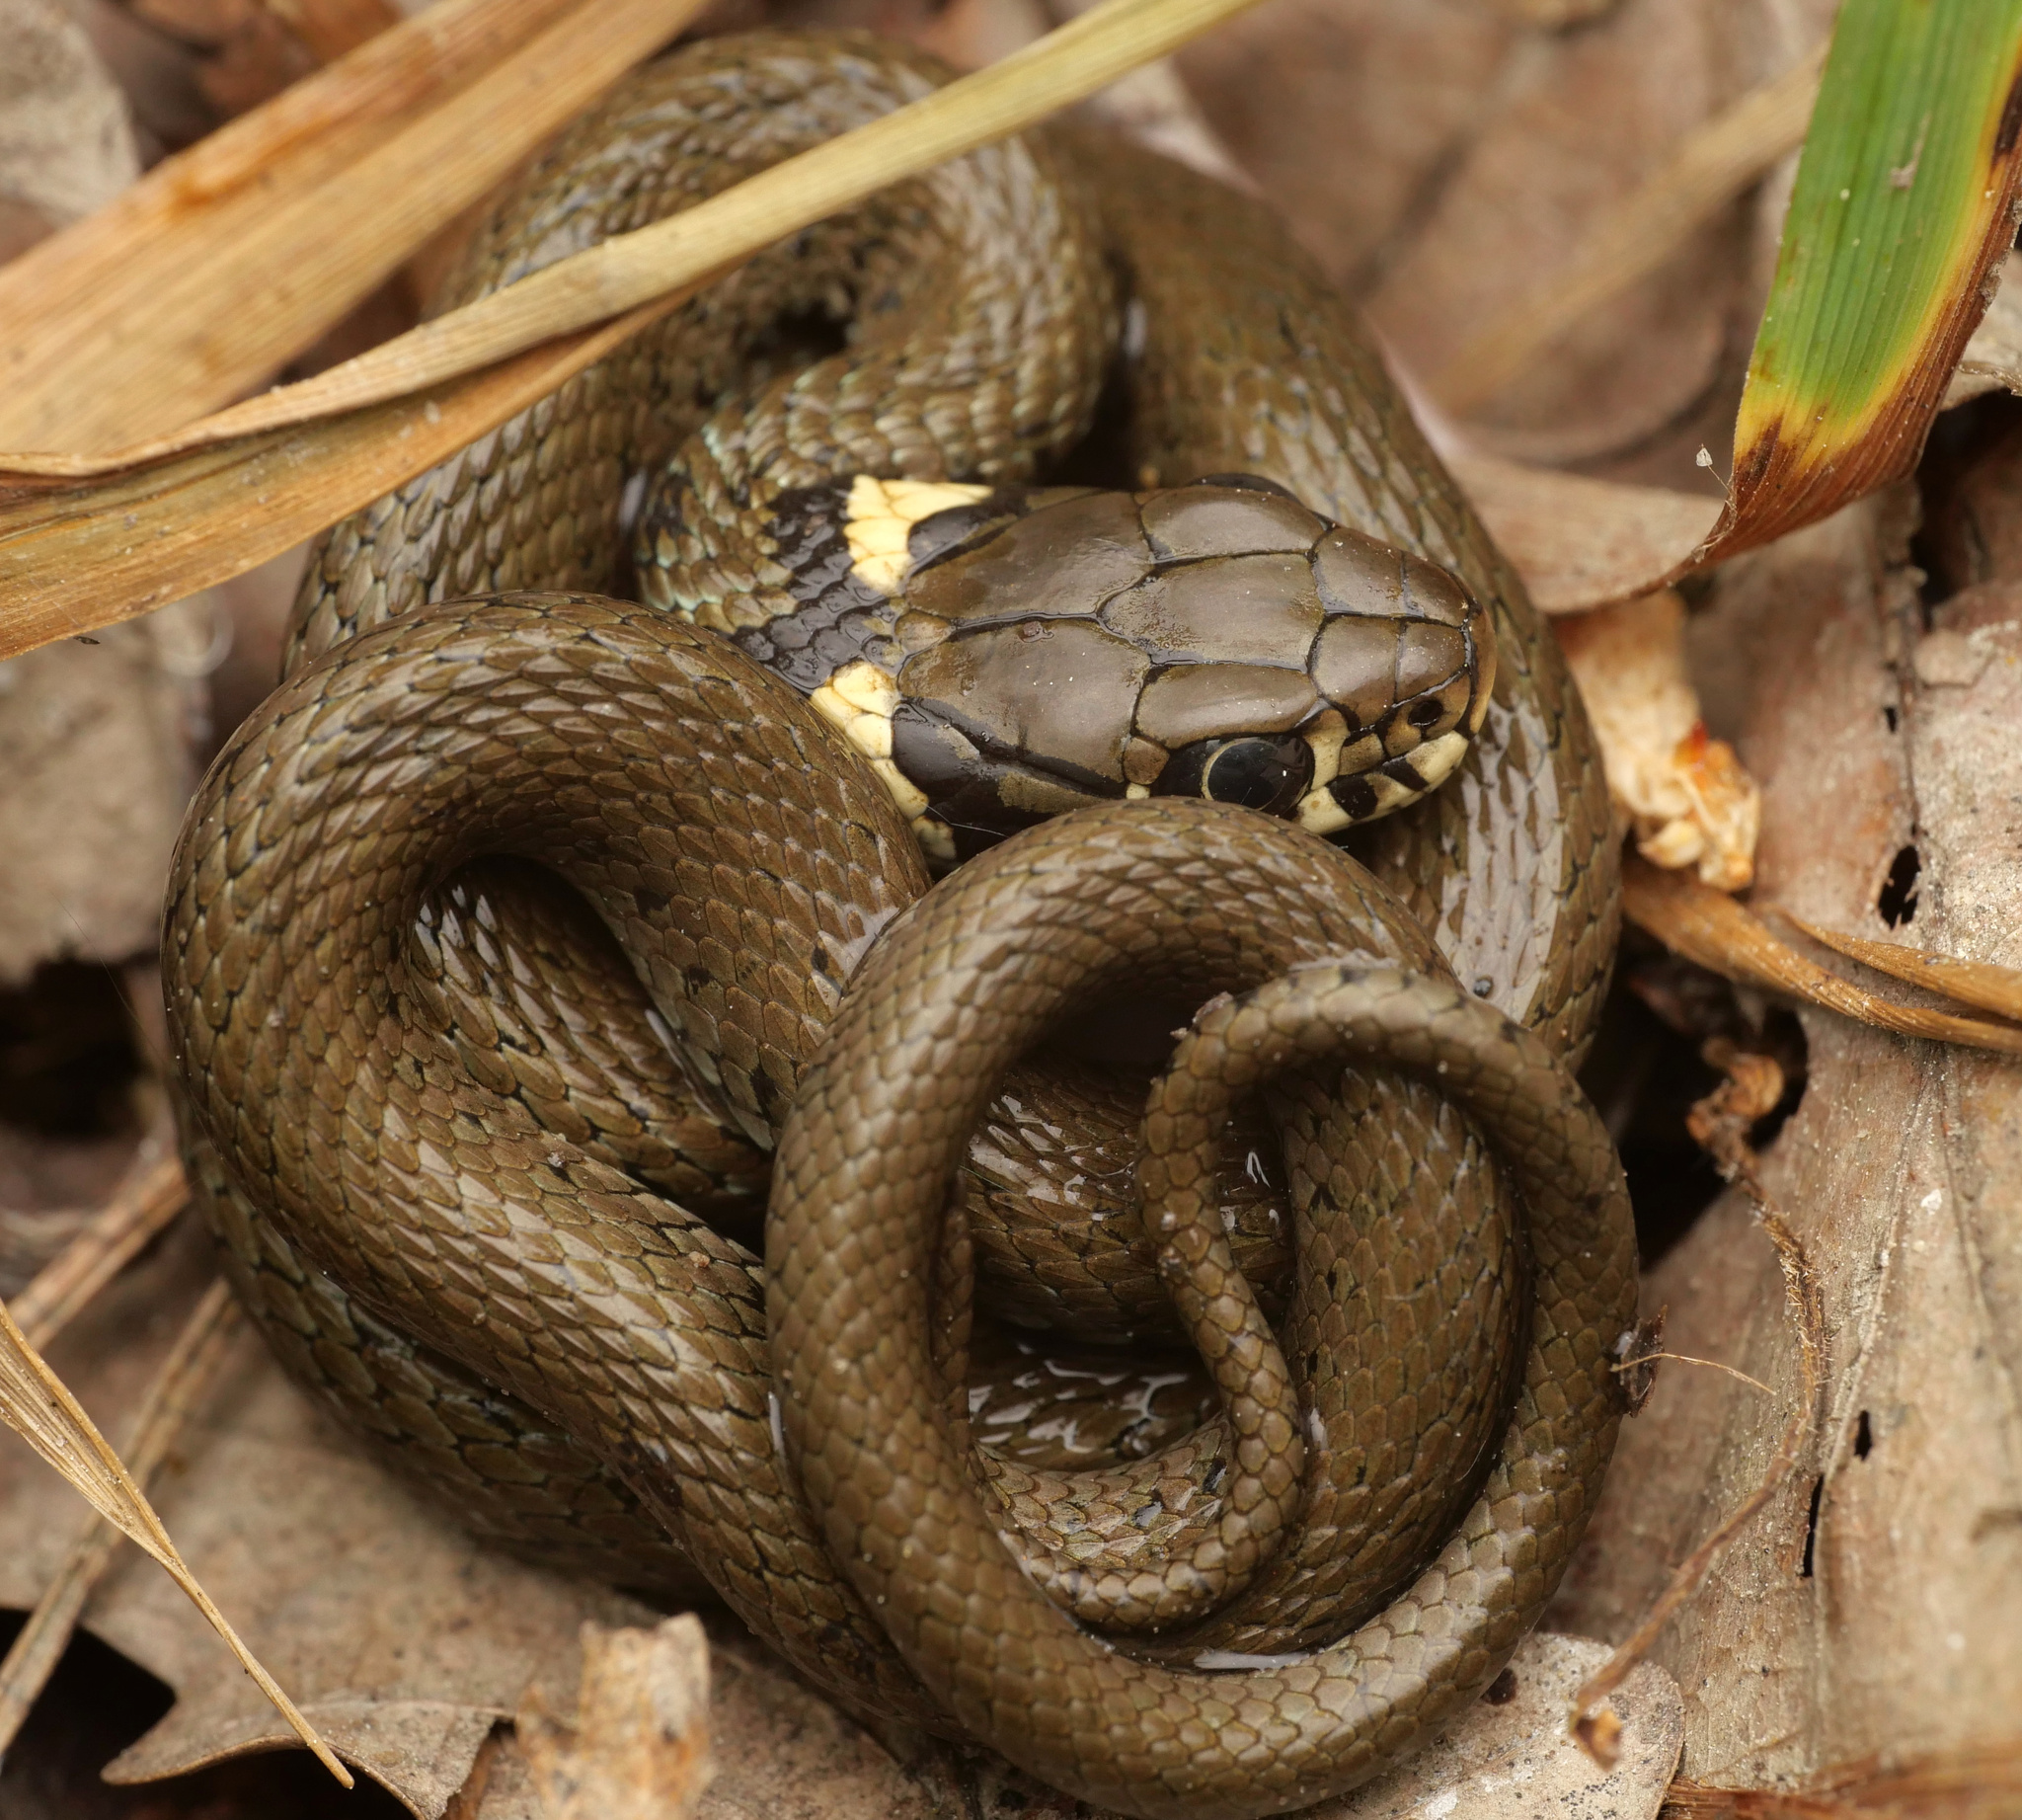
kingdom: Animalia
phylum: Chordata
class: Squamata
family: Colubridae
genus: Natrix
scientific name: Natrix natrix
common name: Grass snake
